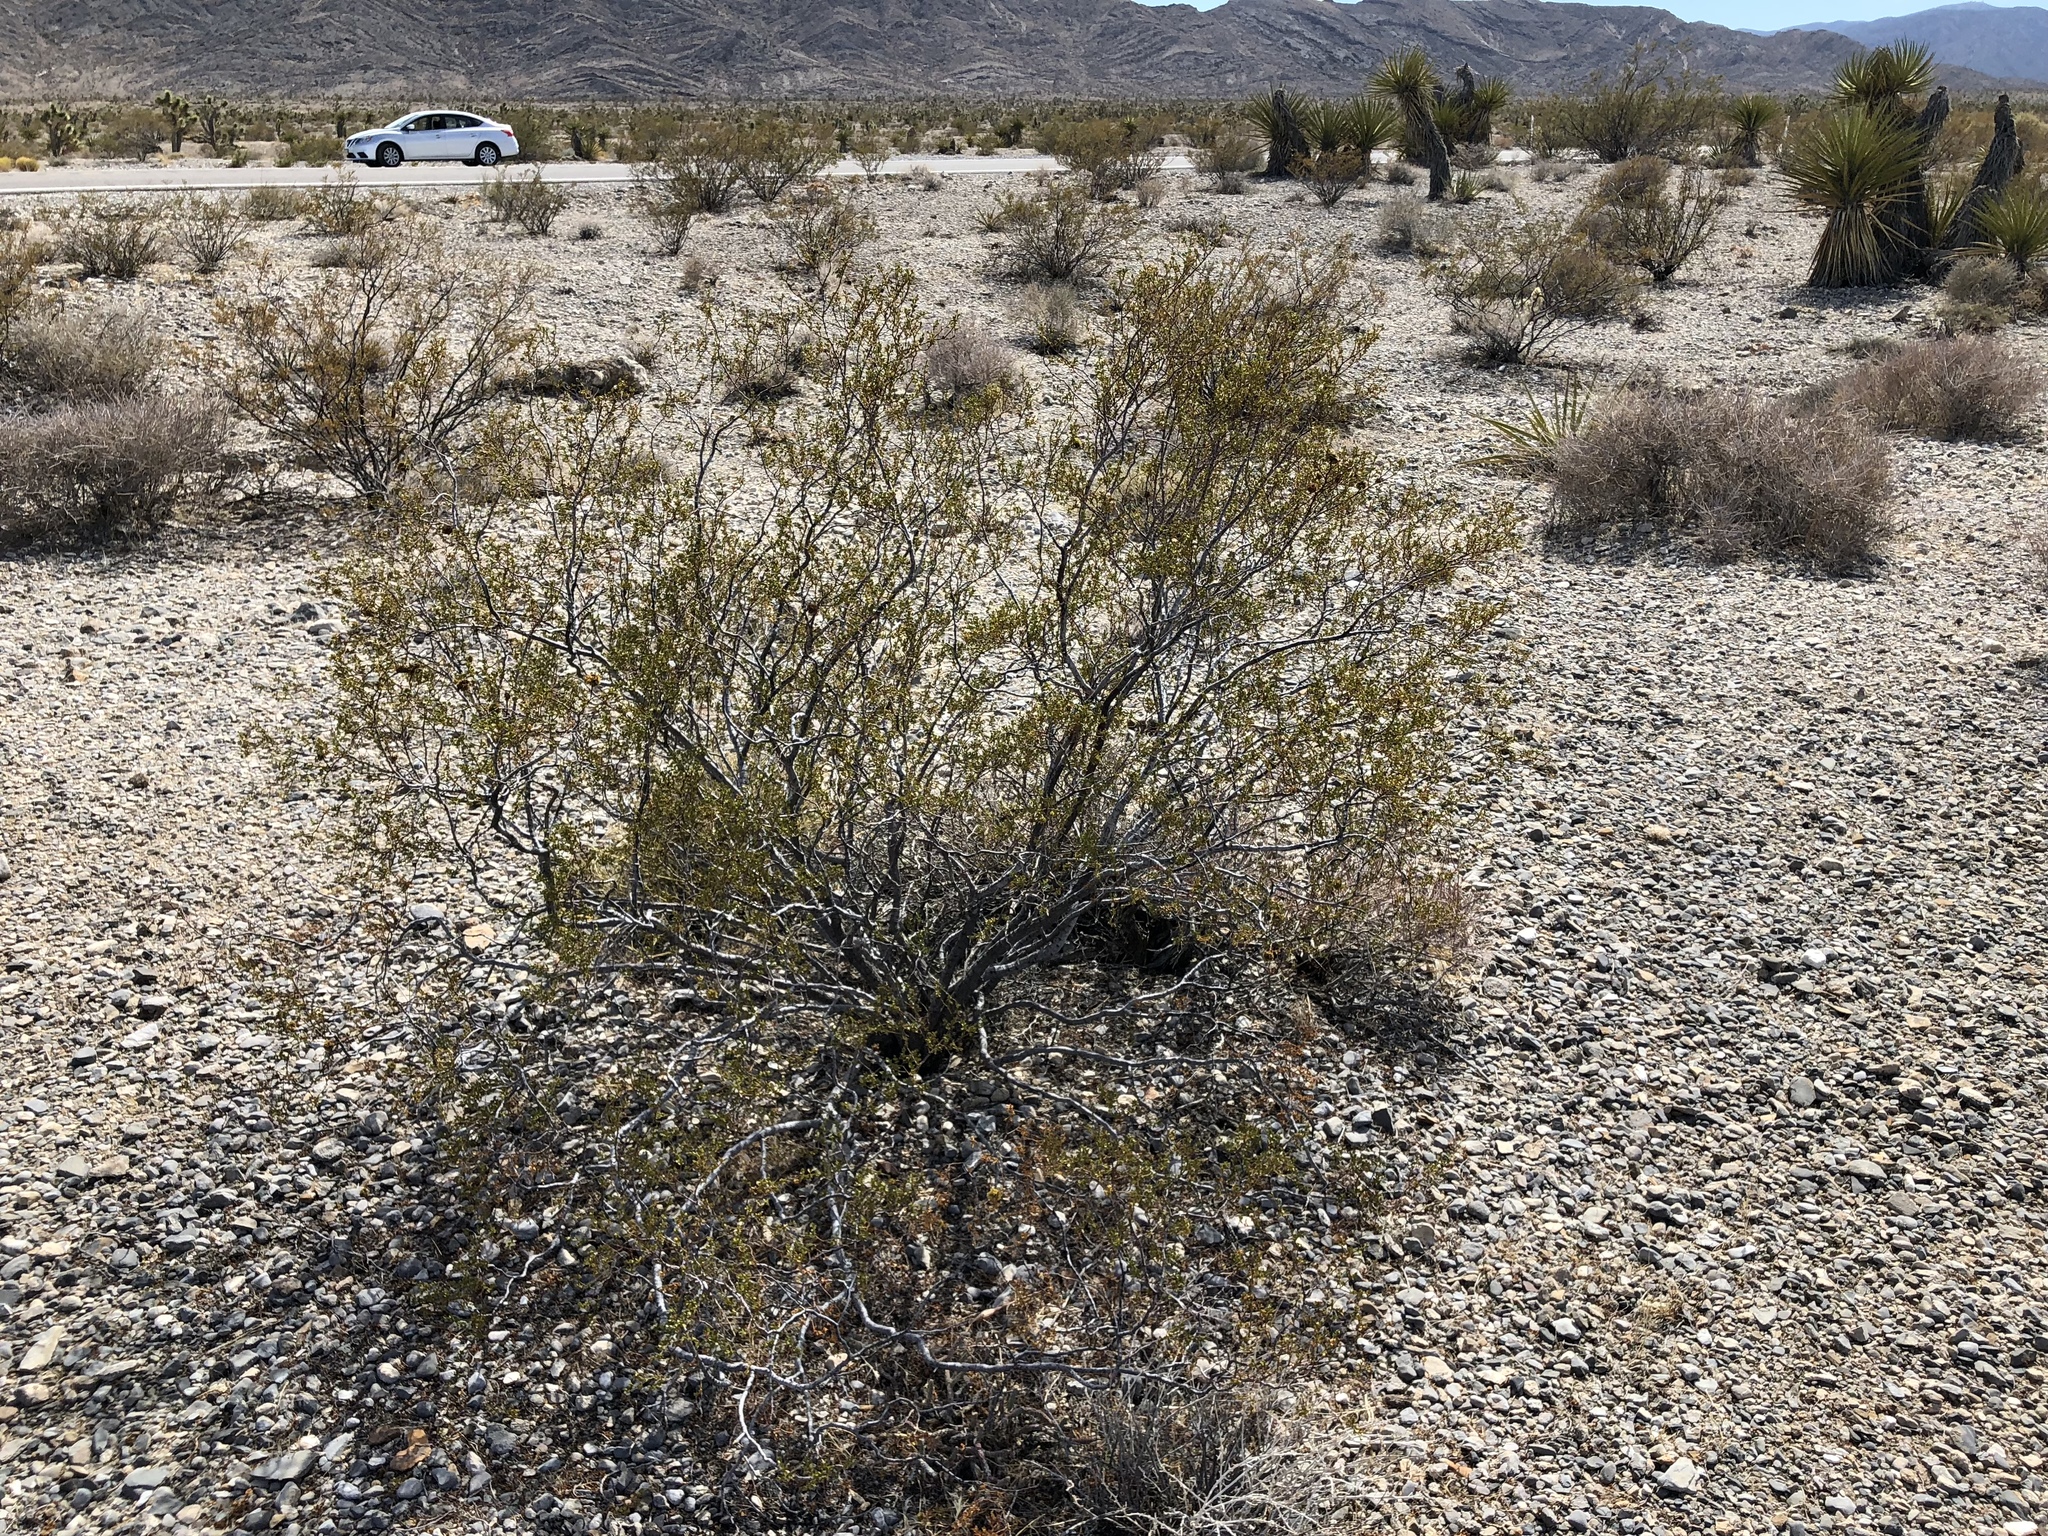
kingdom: Plantae
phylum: Tracheophyta
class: Magnoliopsida
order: Zygophyllales
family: Zygophyllaceae
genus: Larrea
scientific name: Larrea tridentata
